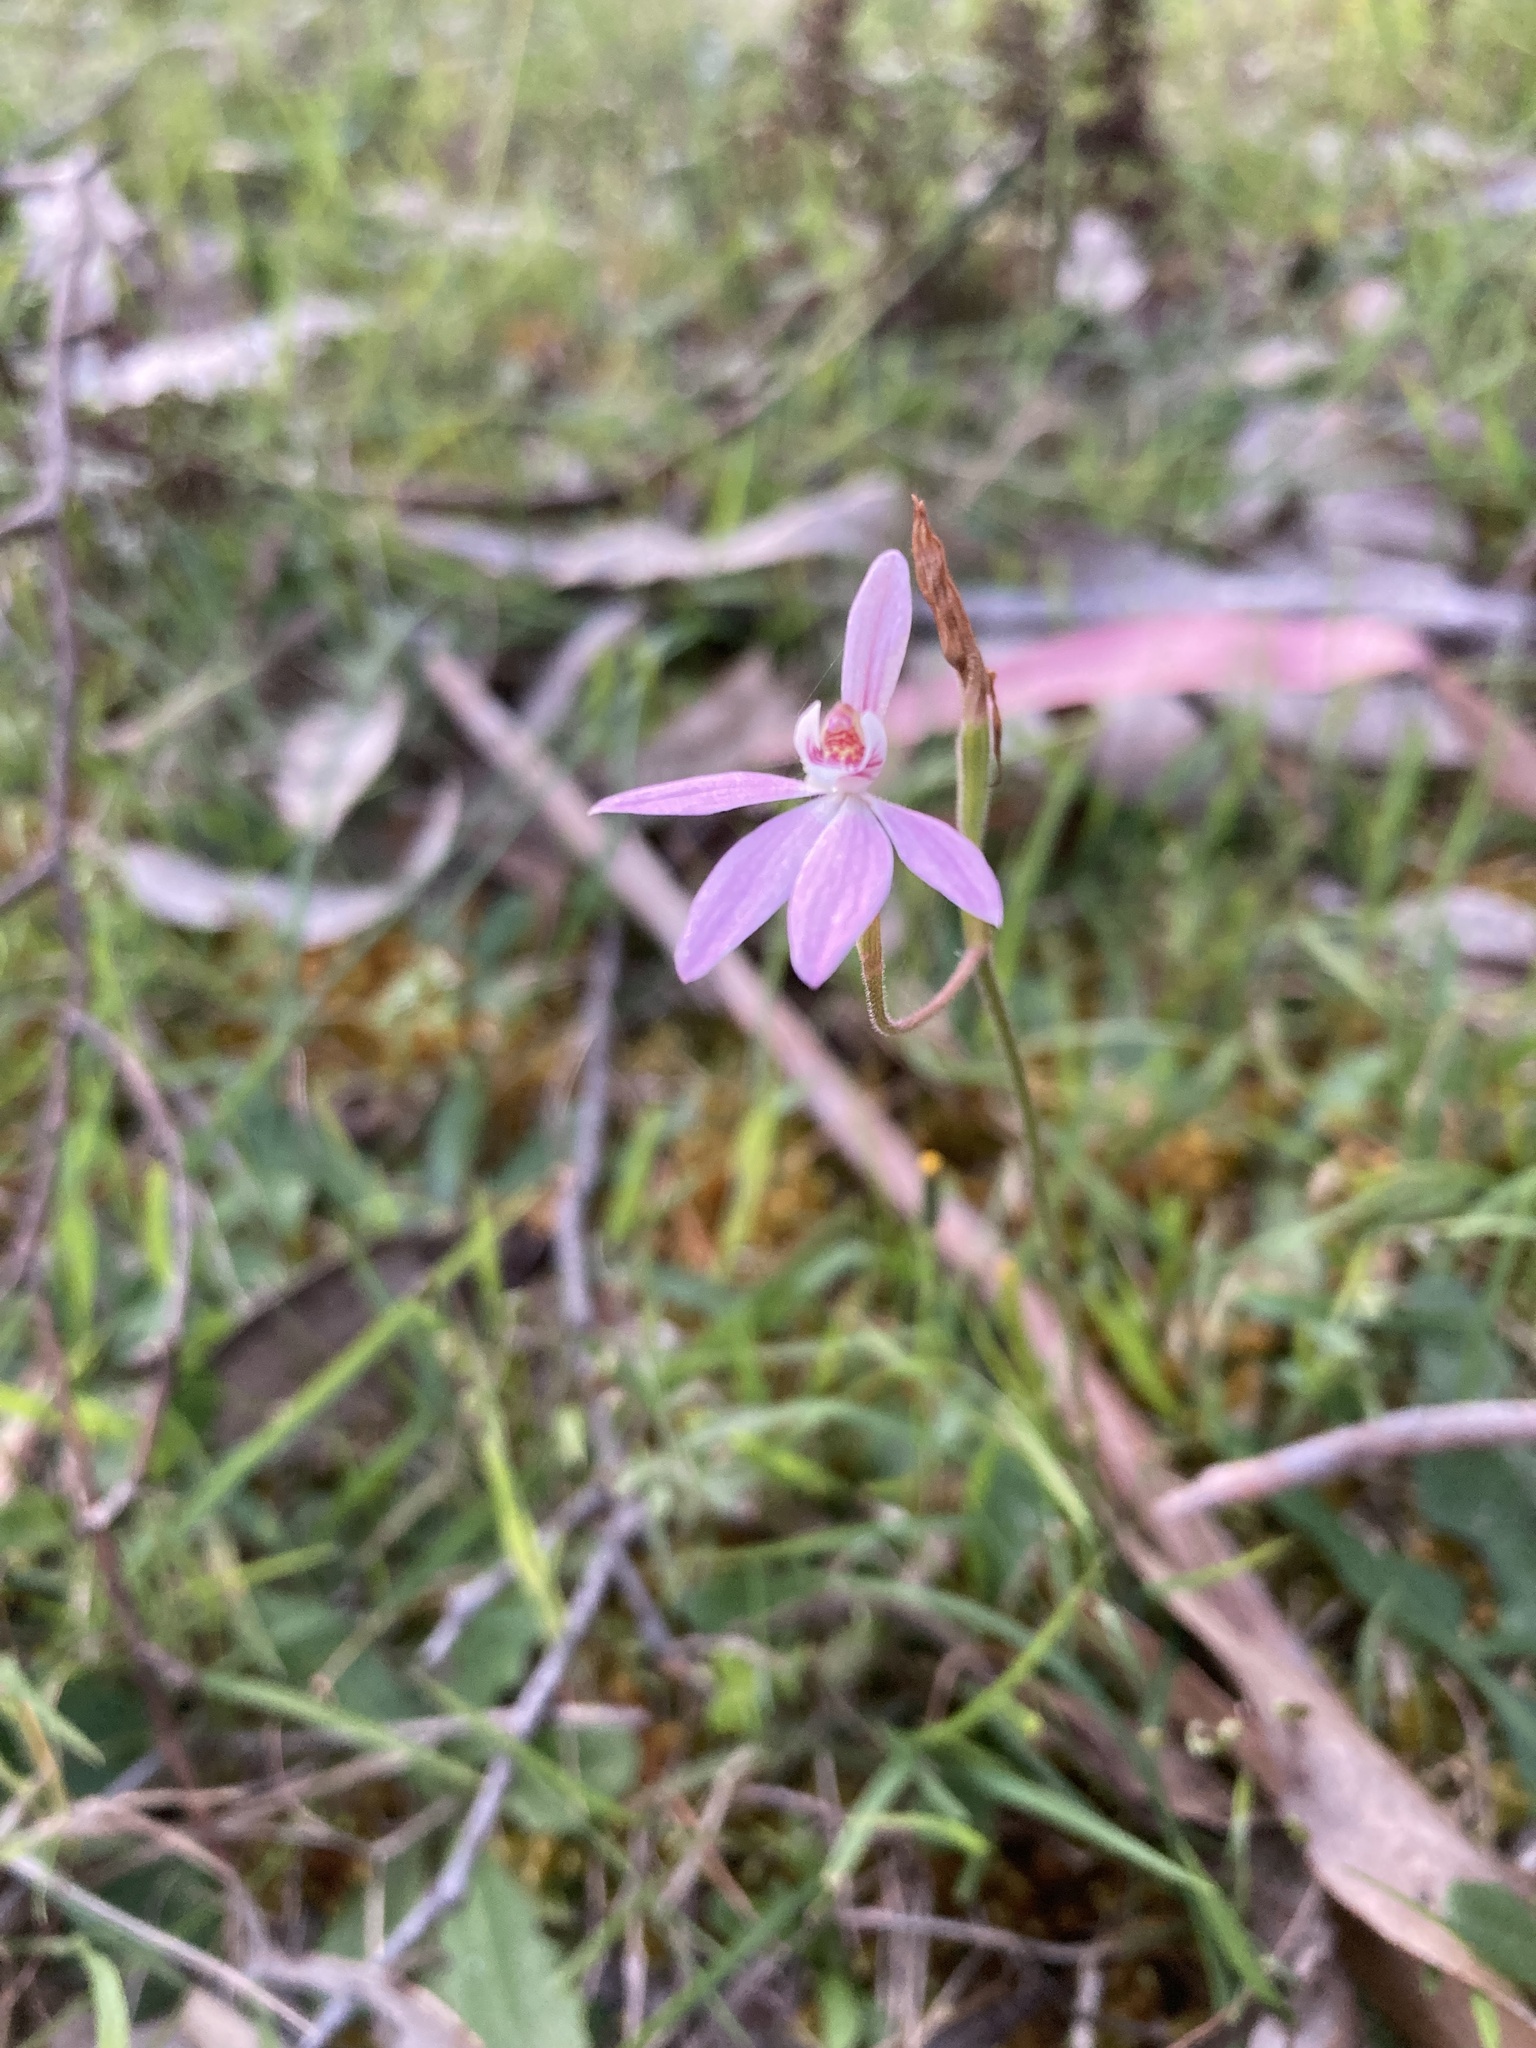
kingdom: Plantae
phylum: Tracheophyta
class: Liliopsida
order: Asparagales
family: Orchidaceae
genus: Caladenia
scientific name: Caladenia carnea
